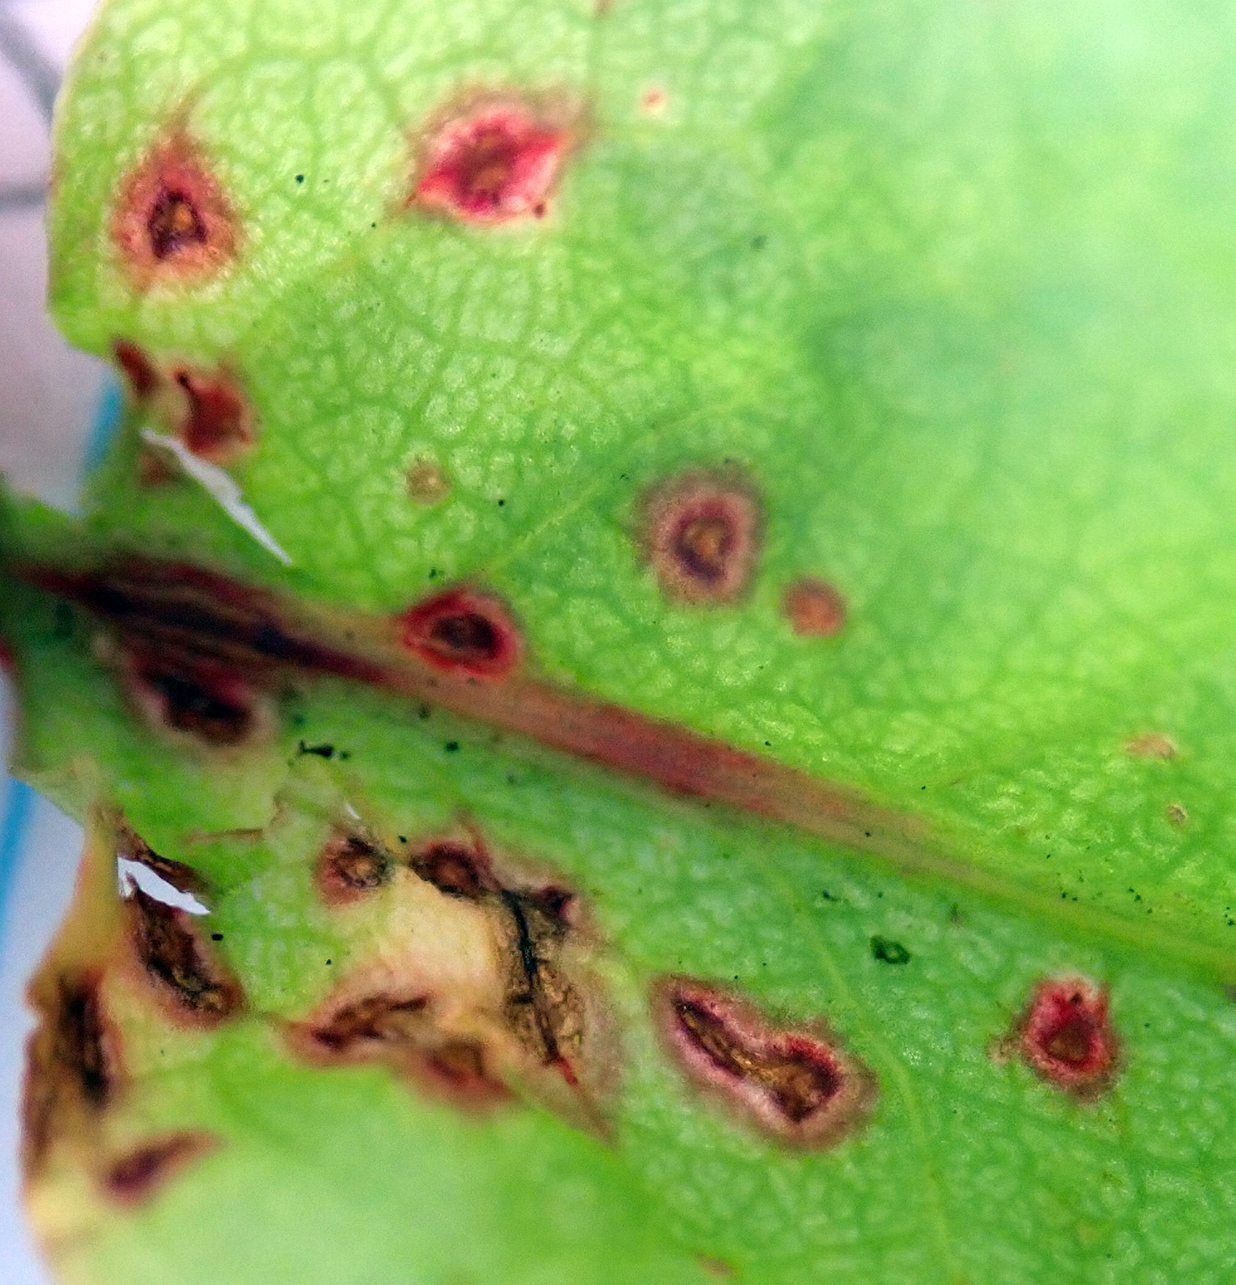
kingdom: Fungi
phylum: Ascomycota
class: Dothideomycetes
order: Mycosphaerellales
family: Mycosphaerellaceae
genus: Ramularia
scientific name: Ramularia rubella
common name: Red dock spot
